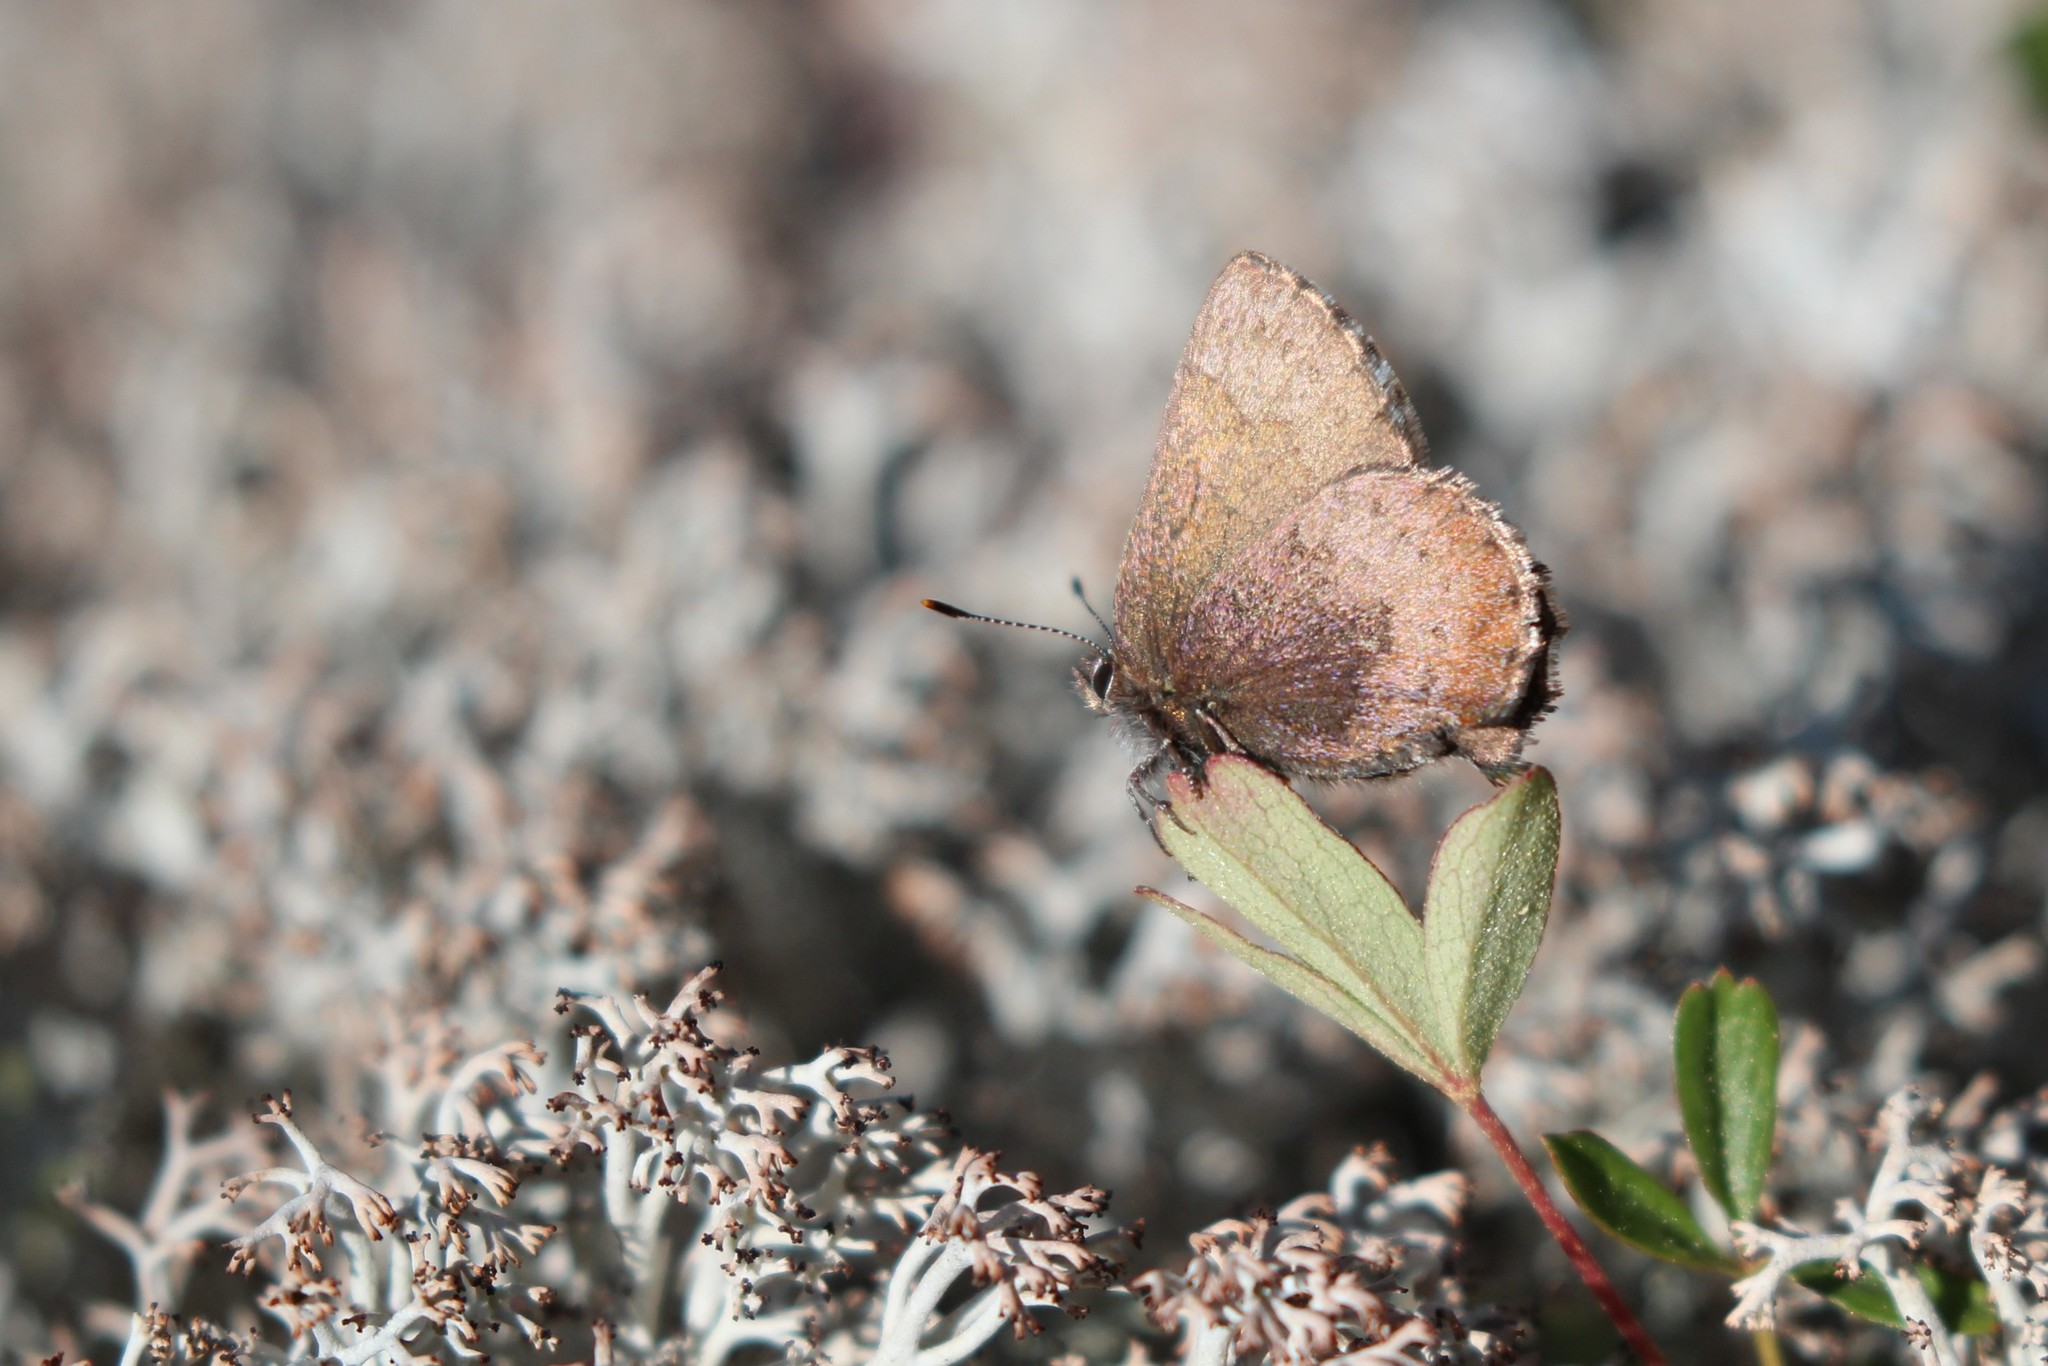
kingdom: Animalia
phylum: Arthropoda
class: Insecta
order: Lepidoptera
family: Lycaenidae
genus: Incisalia
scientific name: Incisalia irioides
